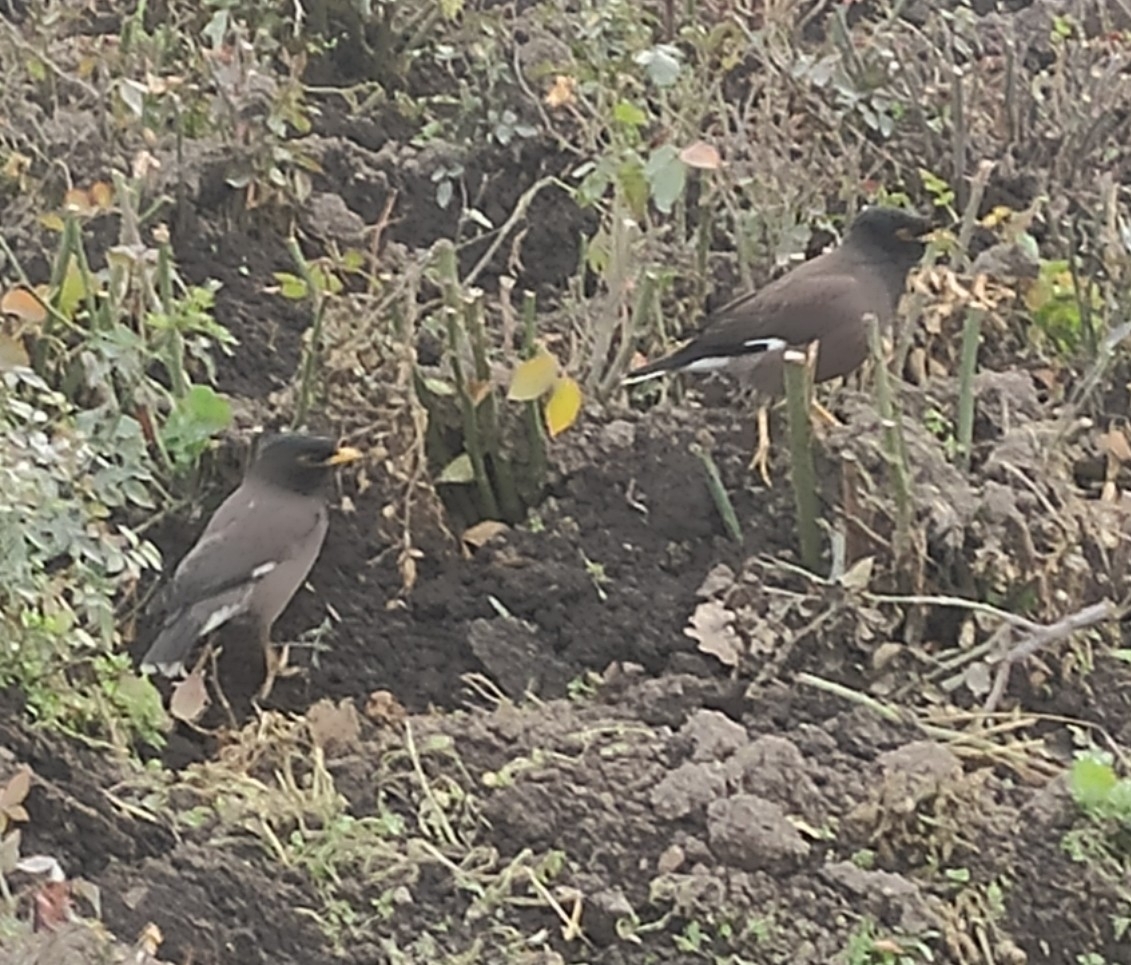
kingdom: Animalia
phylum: Chordata
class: Aves
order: Passeriformes
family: Sturnidae
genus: Acridotheres
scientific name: Acridotheres tristis
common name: Common myna
